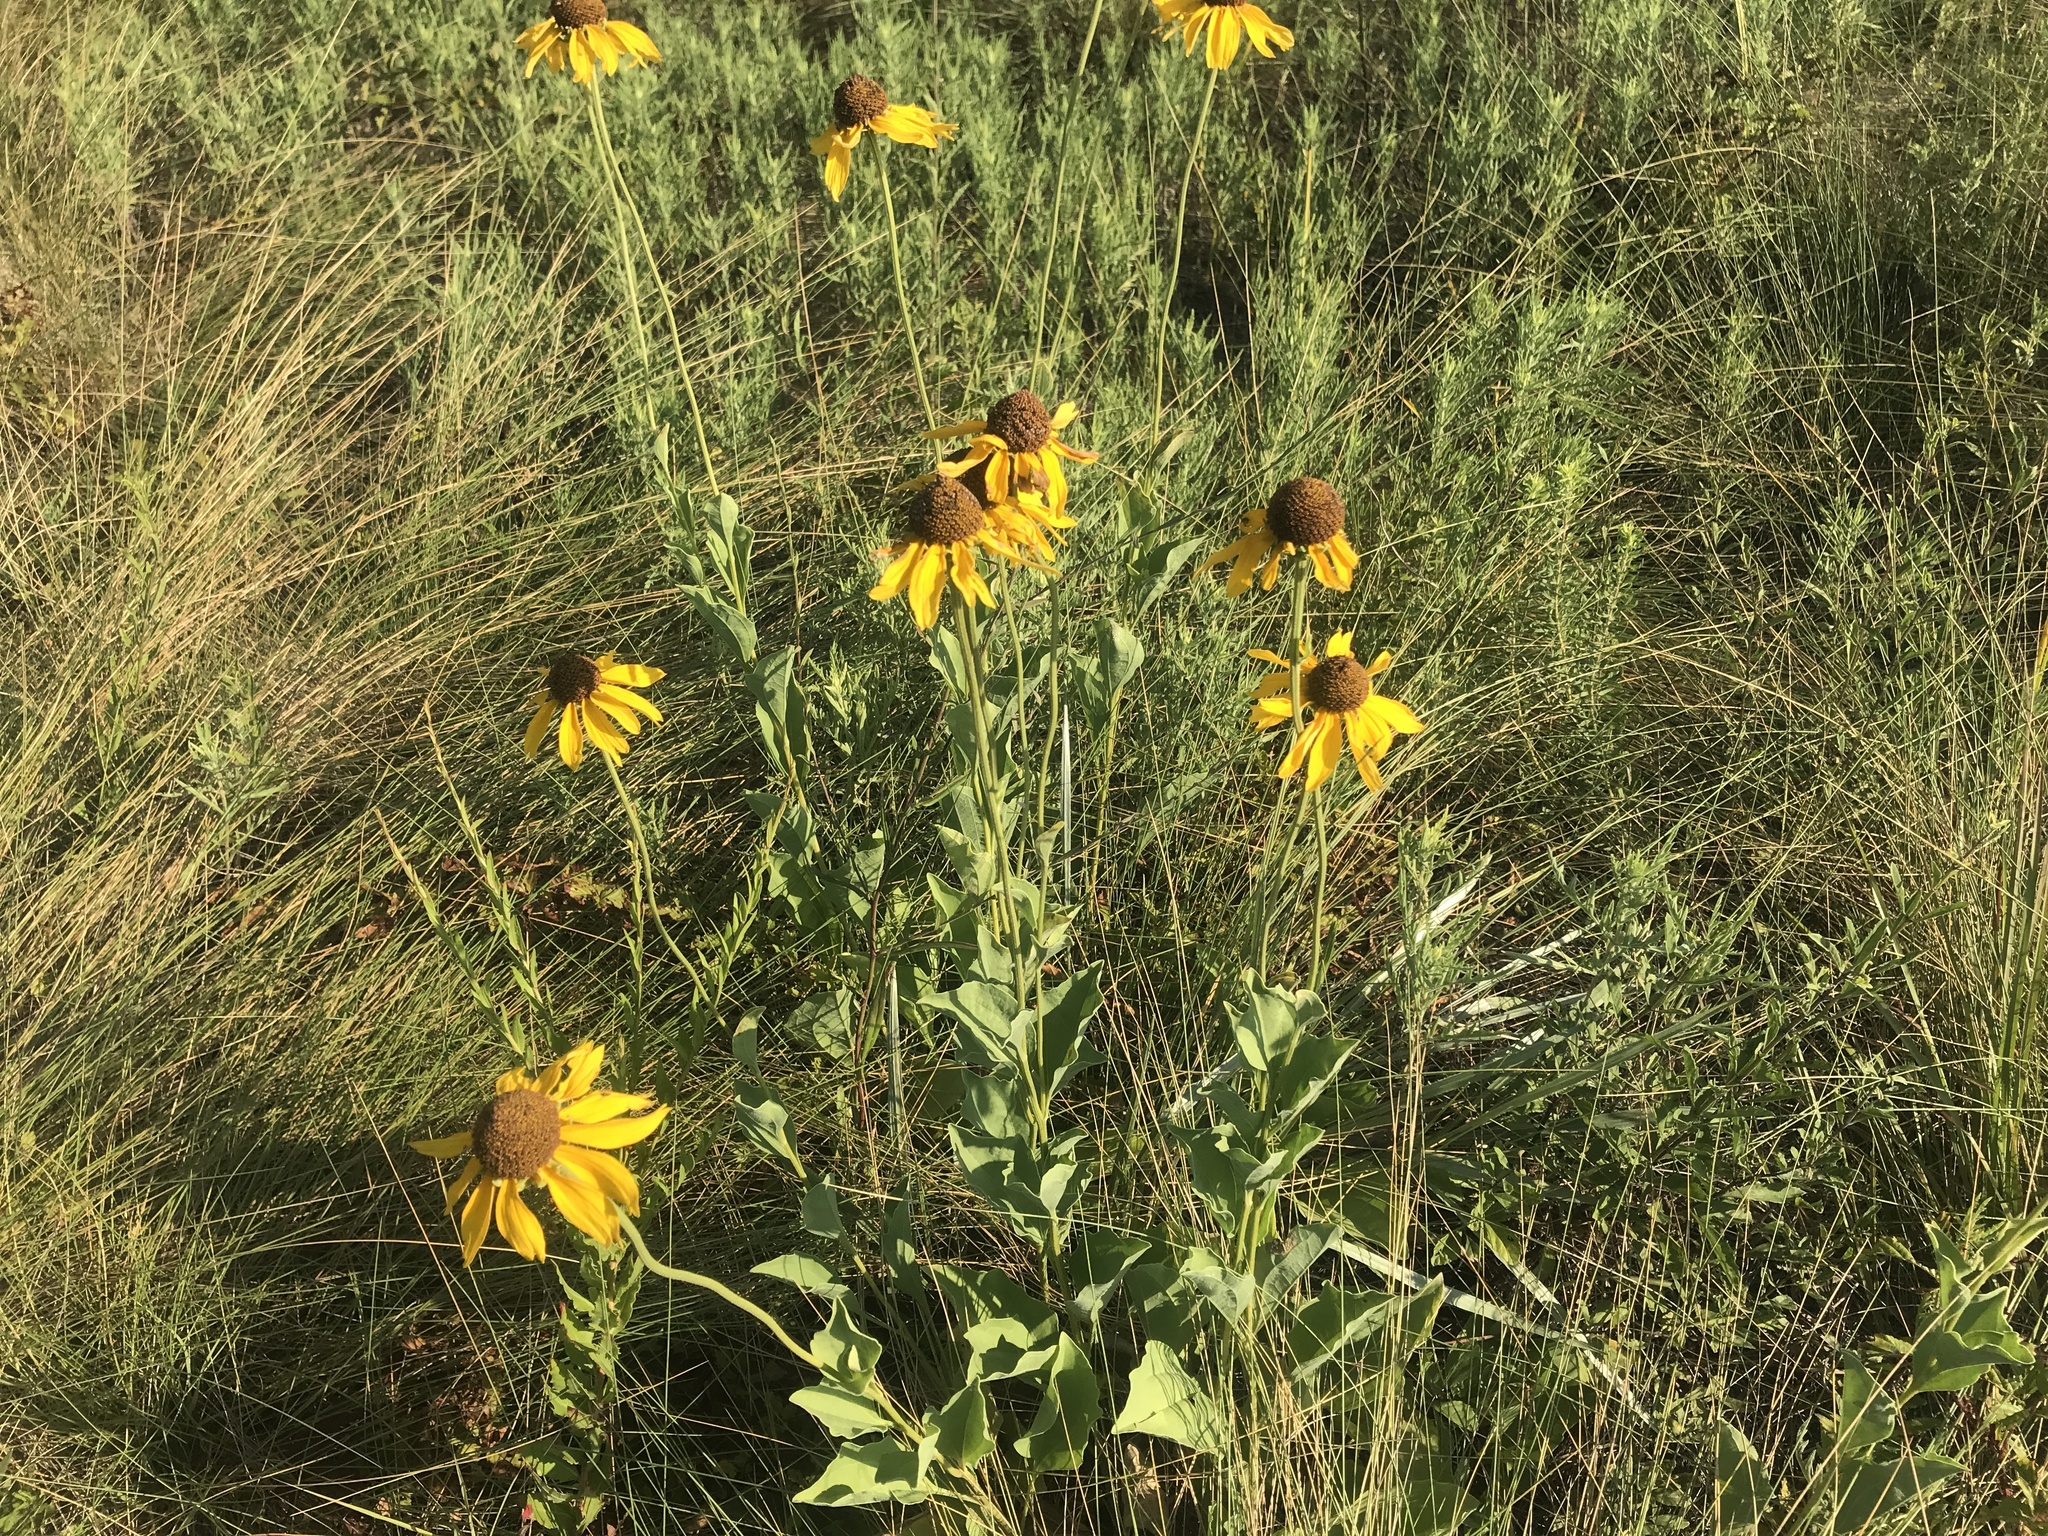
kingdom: Plantae
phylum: Tracheophyta
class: Magnoliopsida
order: Asterales
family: Asteraceae
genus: Rudbeckia
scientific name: Rudbeckia grandiflora
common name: Large-flowered coneflower
